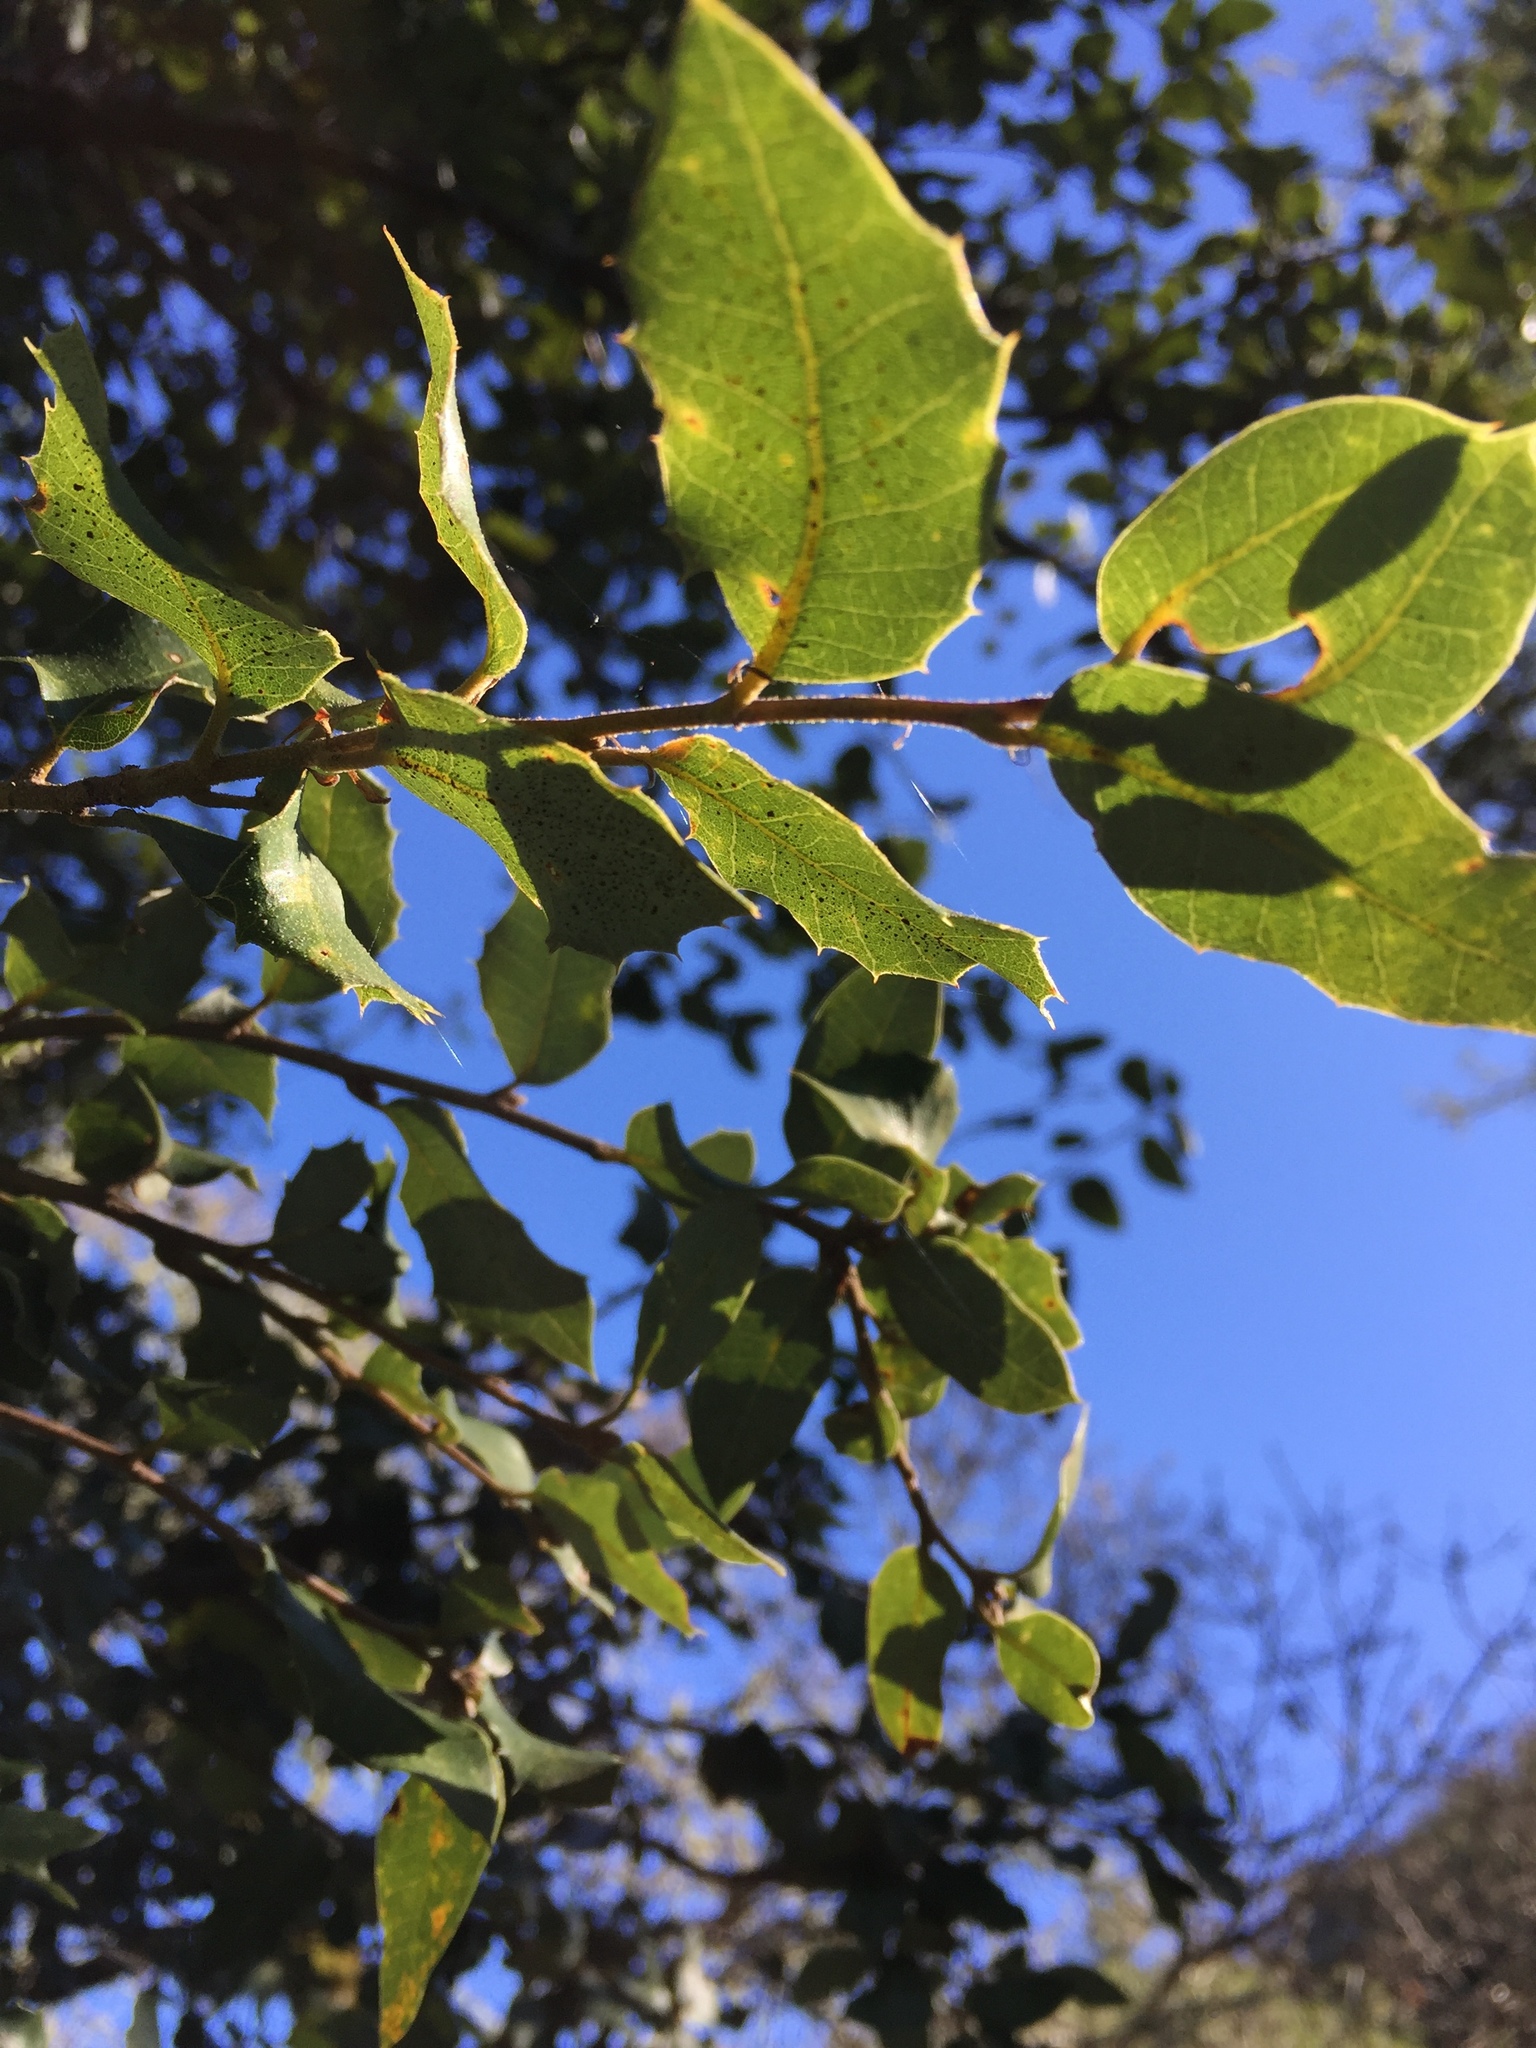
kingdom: Plantae
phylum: Tracheophyta
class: Magnoliopsida
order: Fagales
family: Fagaceae
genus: Quercus
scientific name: Quercus chrysolepis
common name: Canyon live oak
